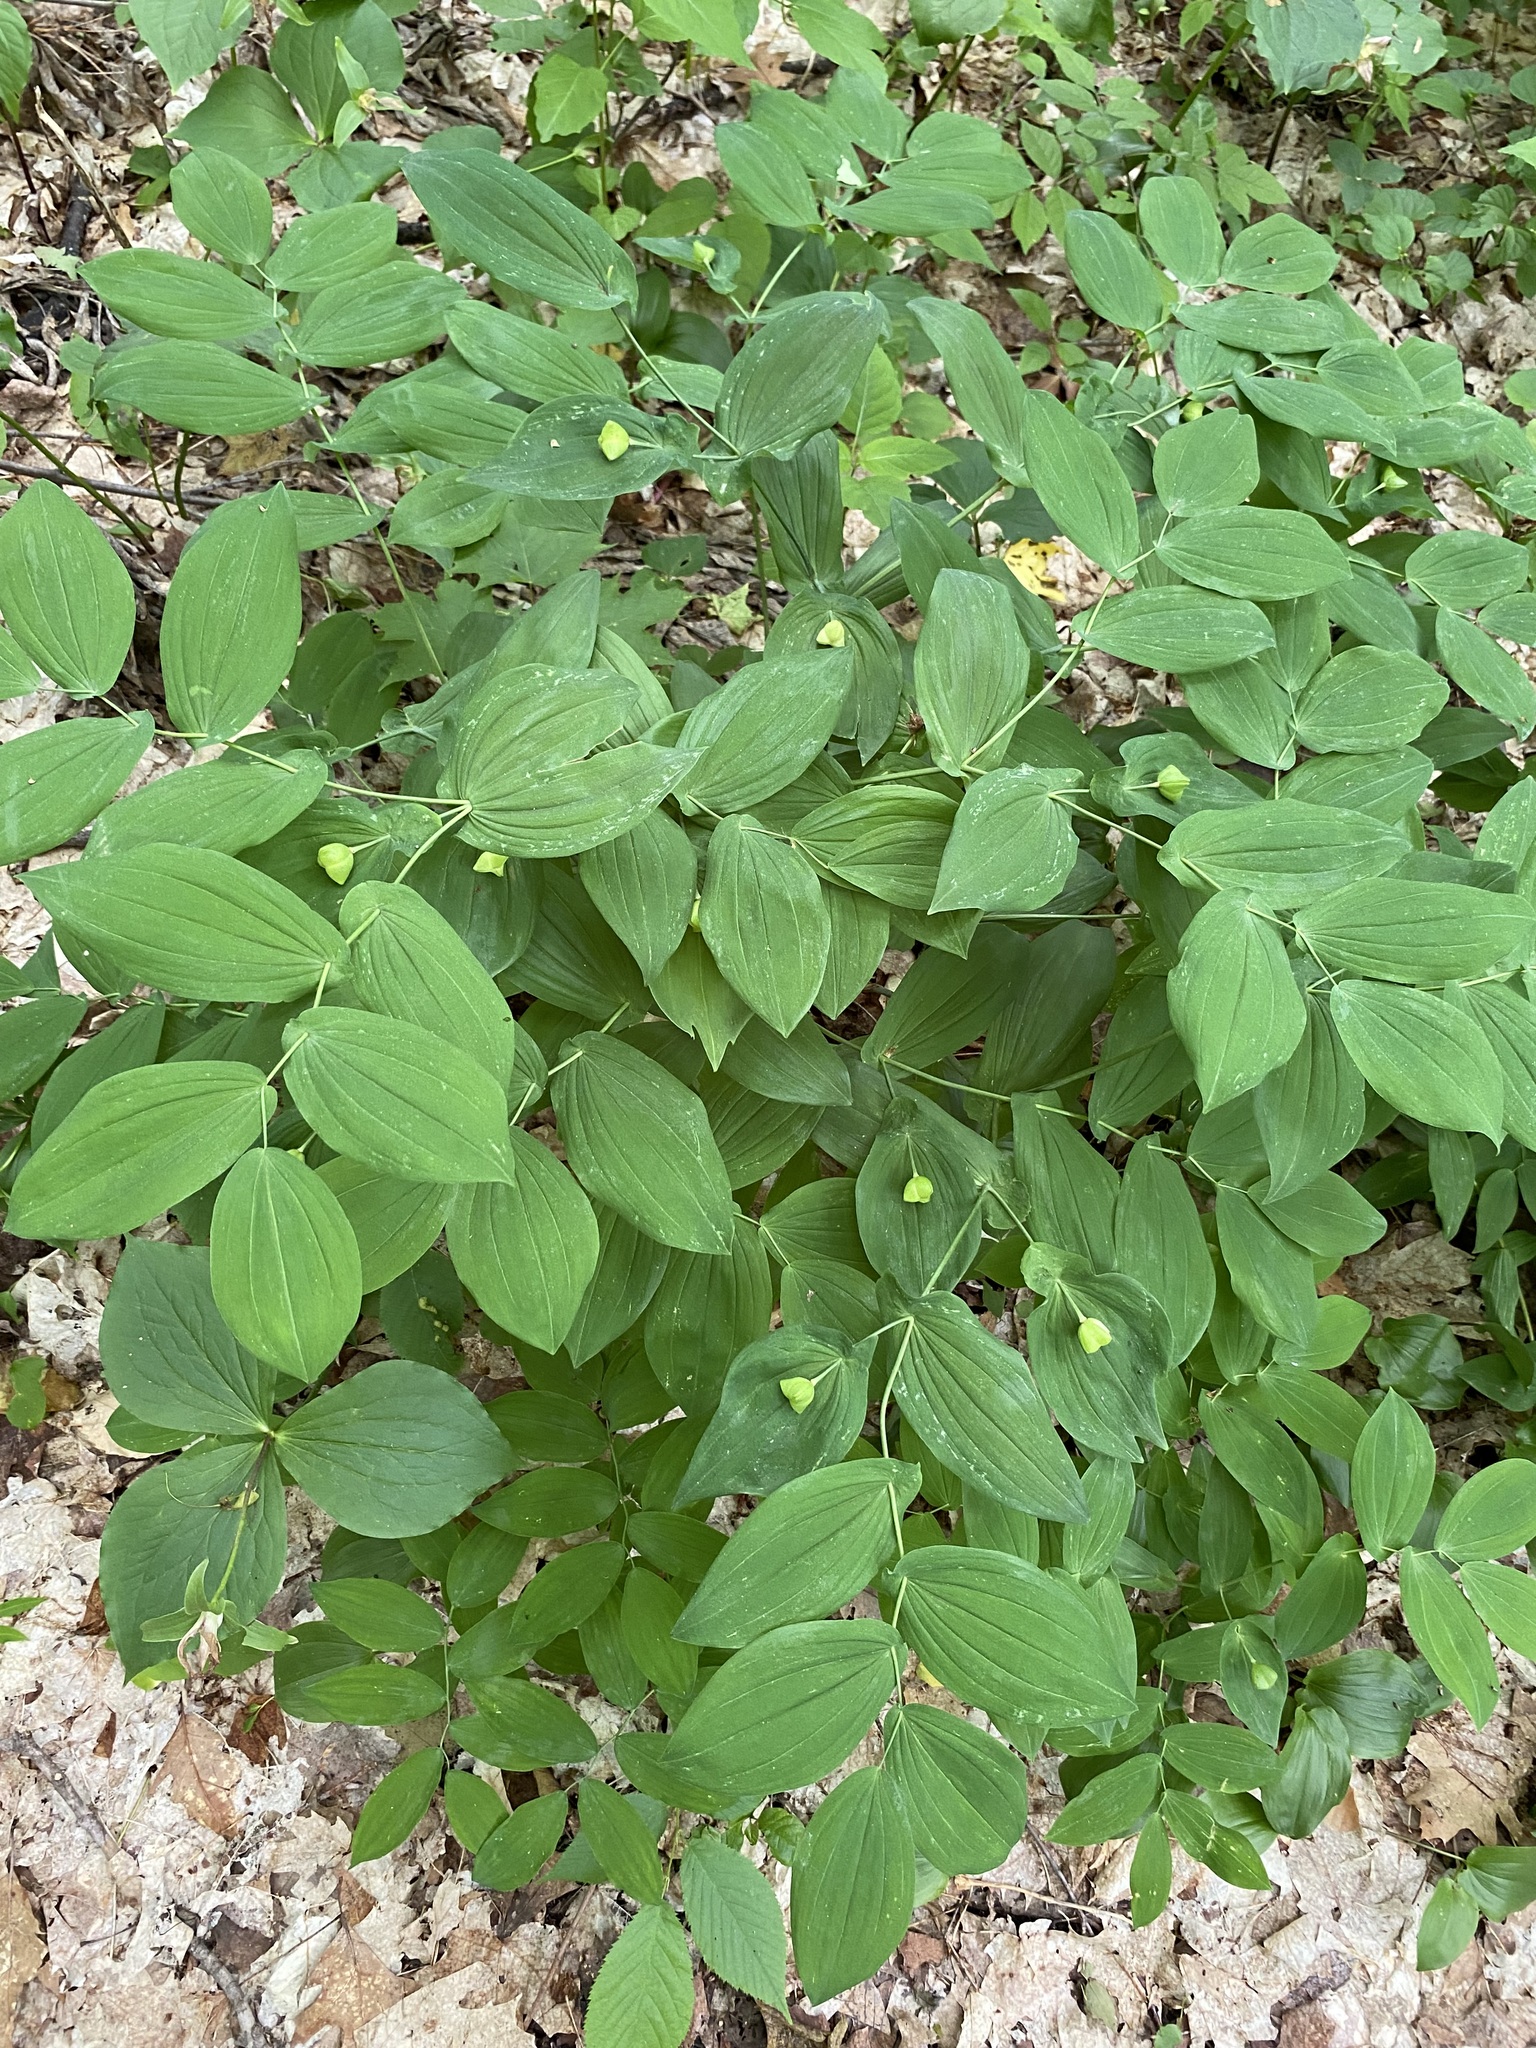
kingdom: Plantae
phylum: Tracheophyta
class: Liliopsida
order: Liliales
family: Colchicaceae
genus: Uvularia
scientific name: Uvularia grandiflora
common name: Bellwort
